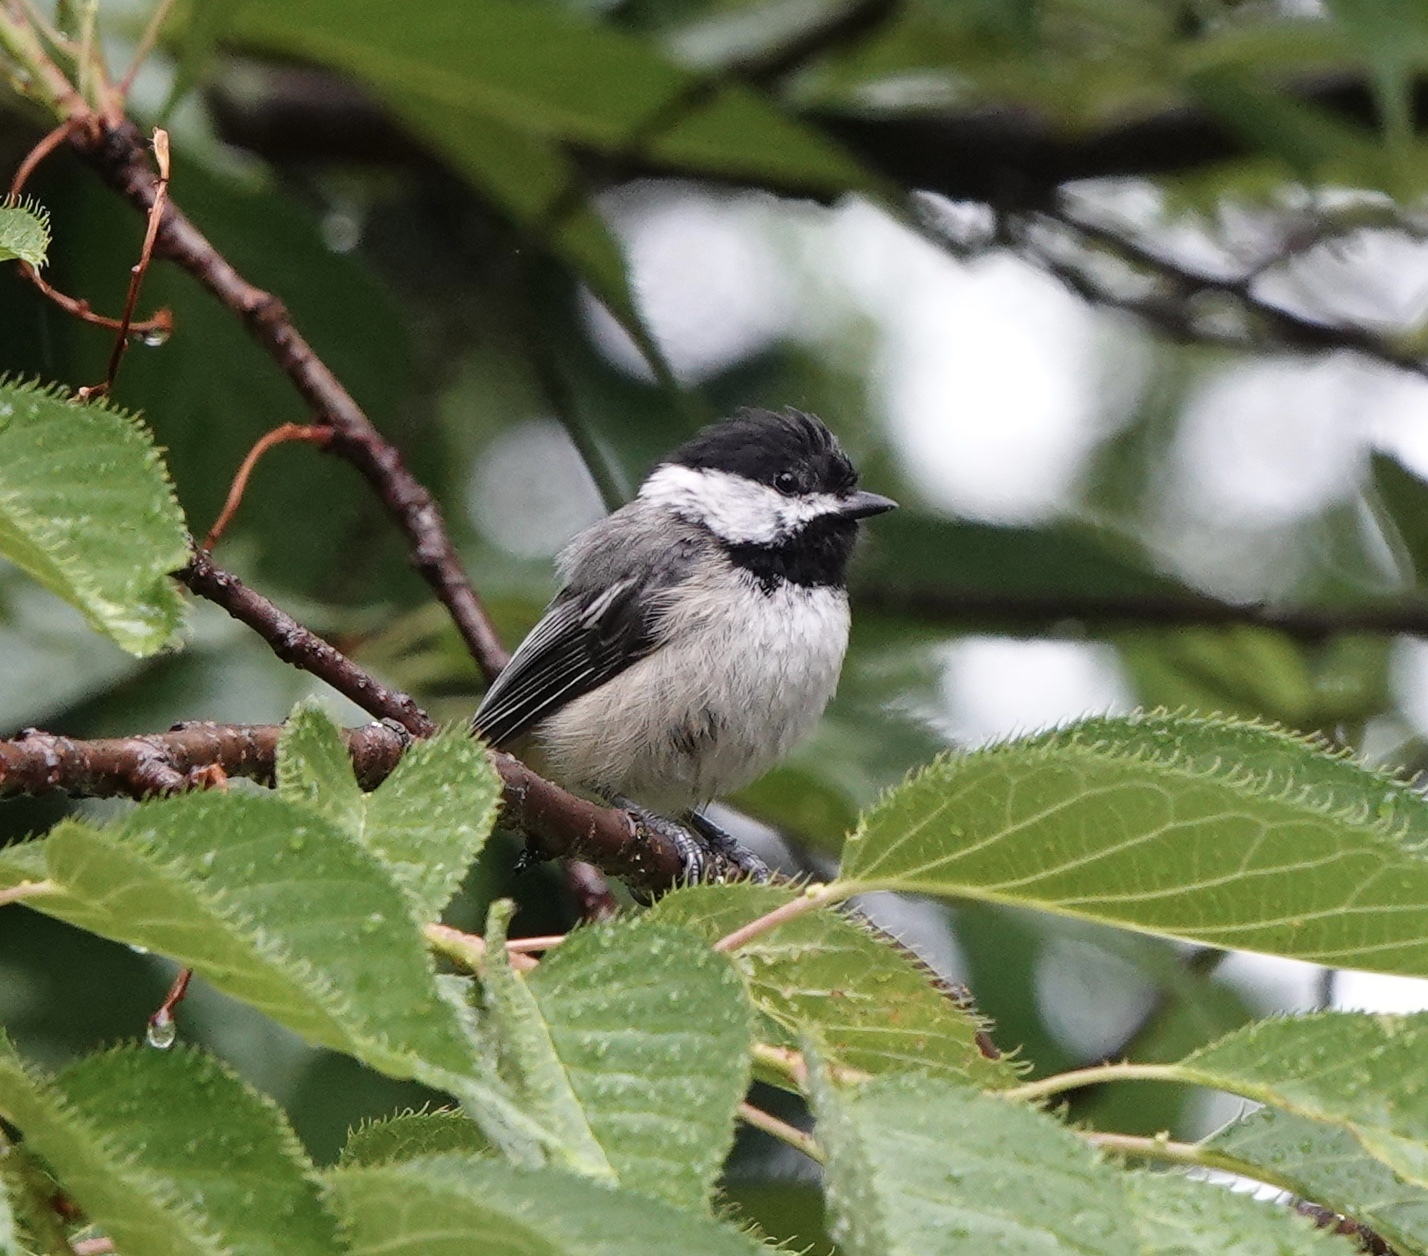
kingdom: Animalia
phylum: Chordata
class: Aves
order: Passeriformes
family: Paridae
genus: Poecile
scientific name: Poecile atricapillus
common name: Black-capped chickadee
